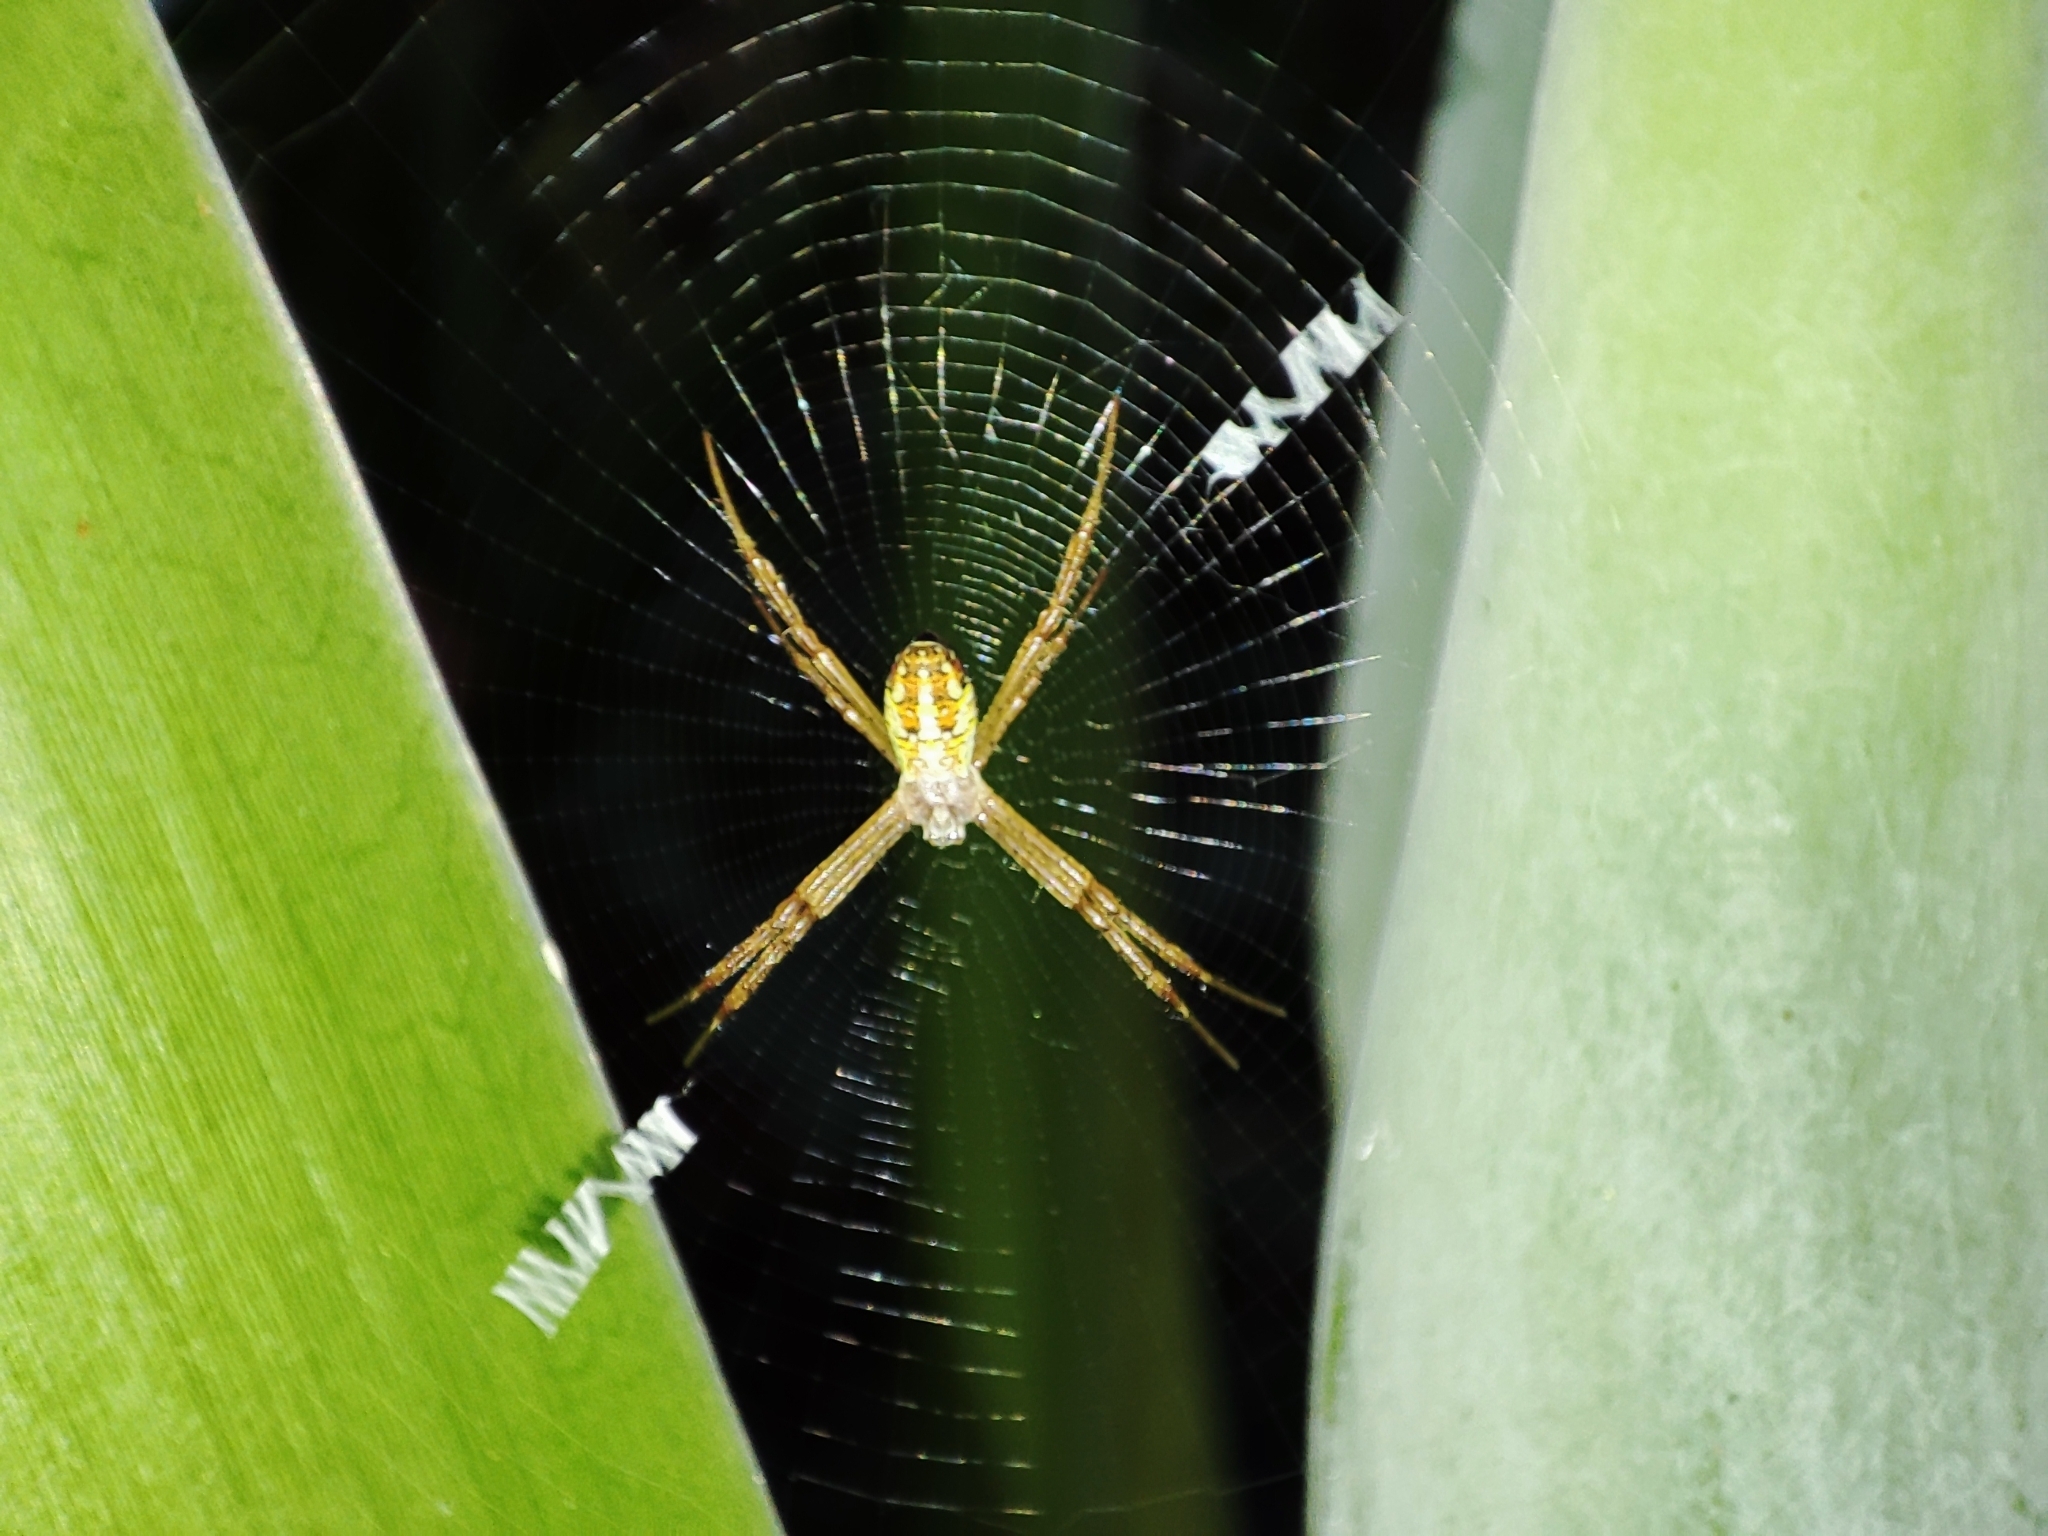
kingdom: Animalia
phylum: Arthropoda
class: Arachnida
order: Araneae
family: Araneidae
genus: Argiope
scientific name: Argiope dang
